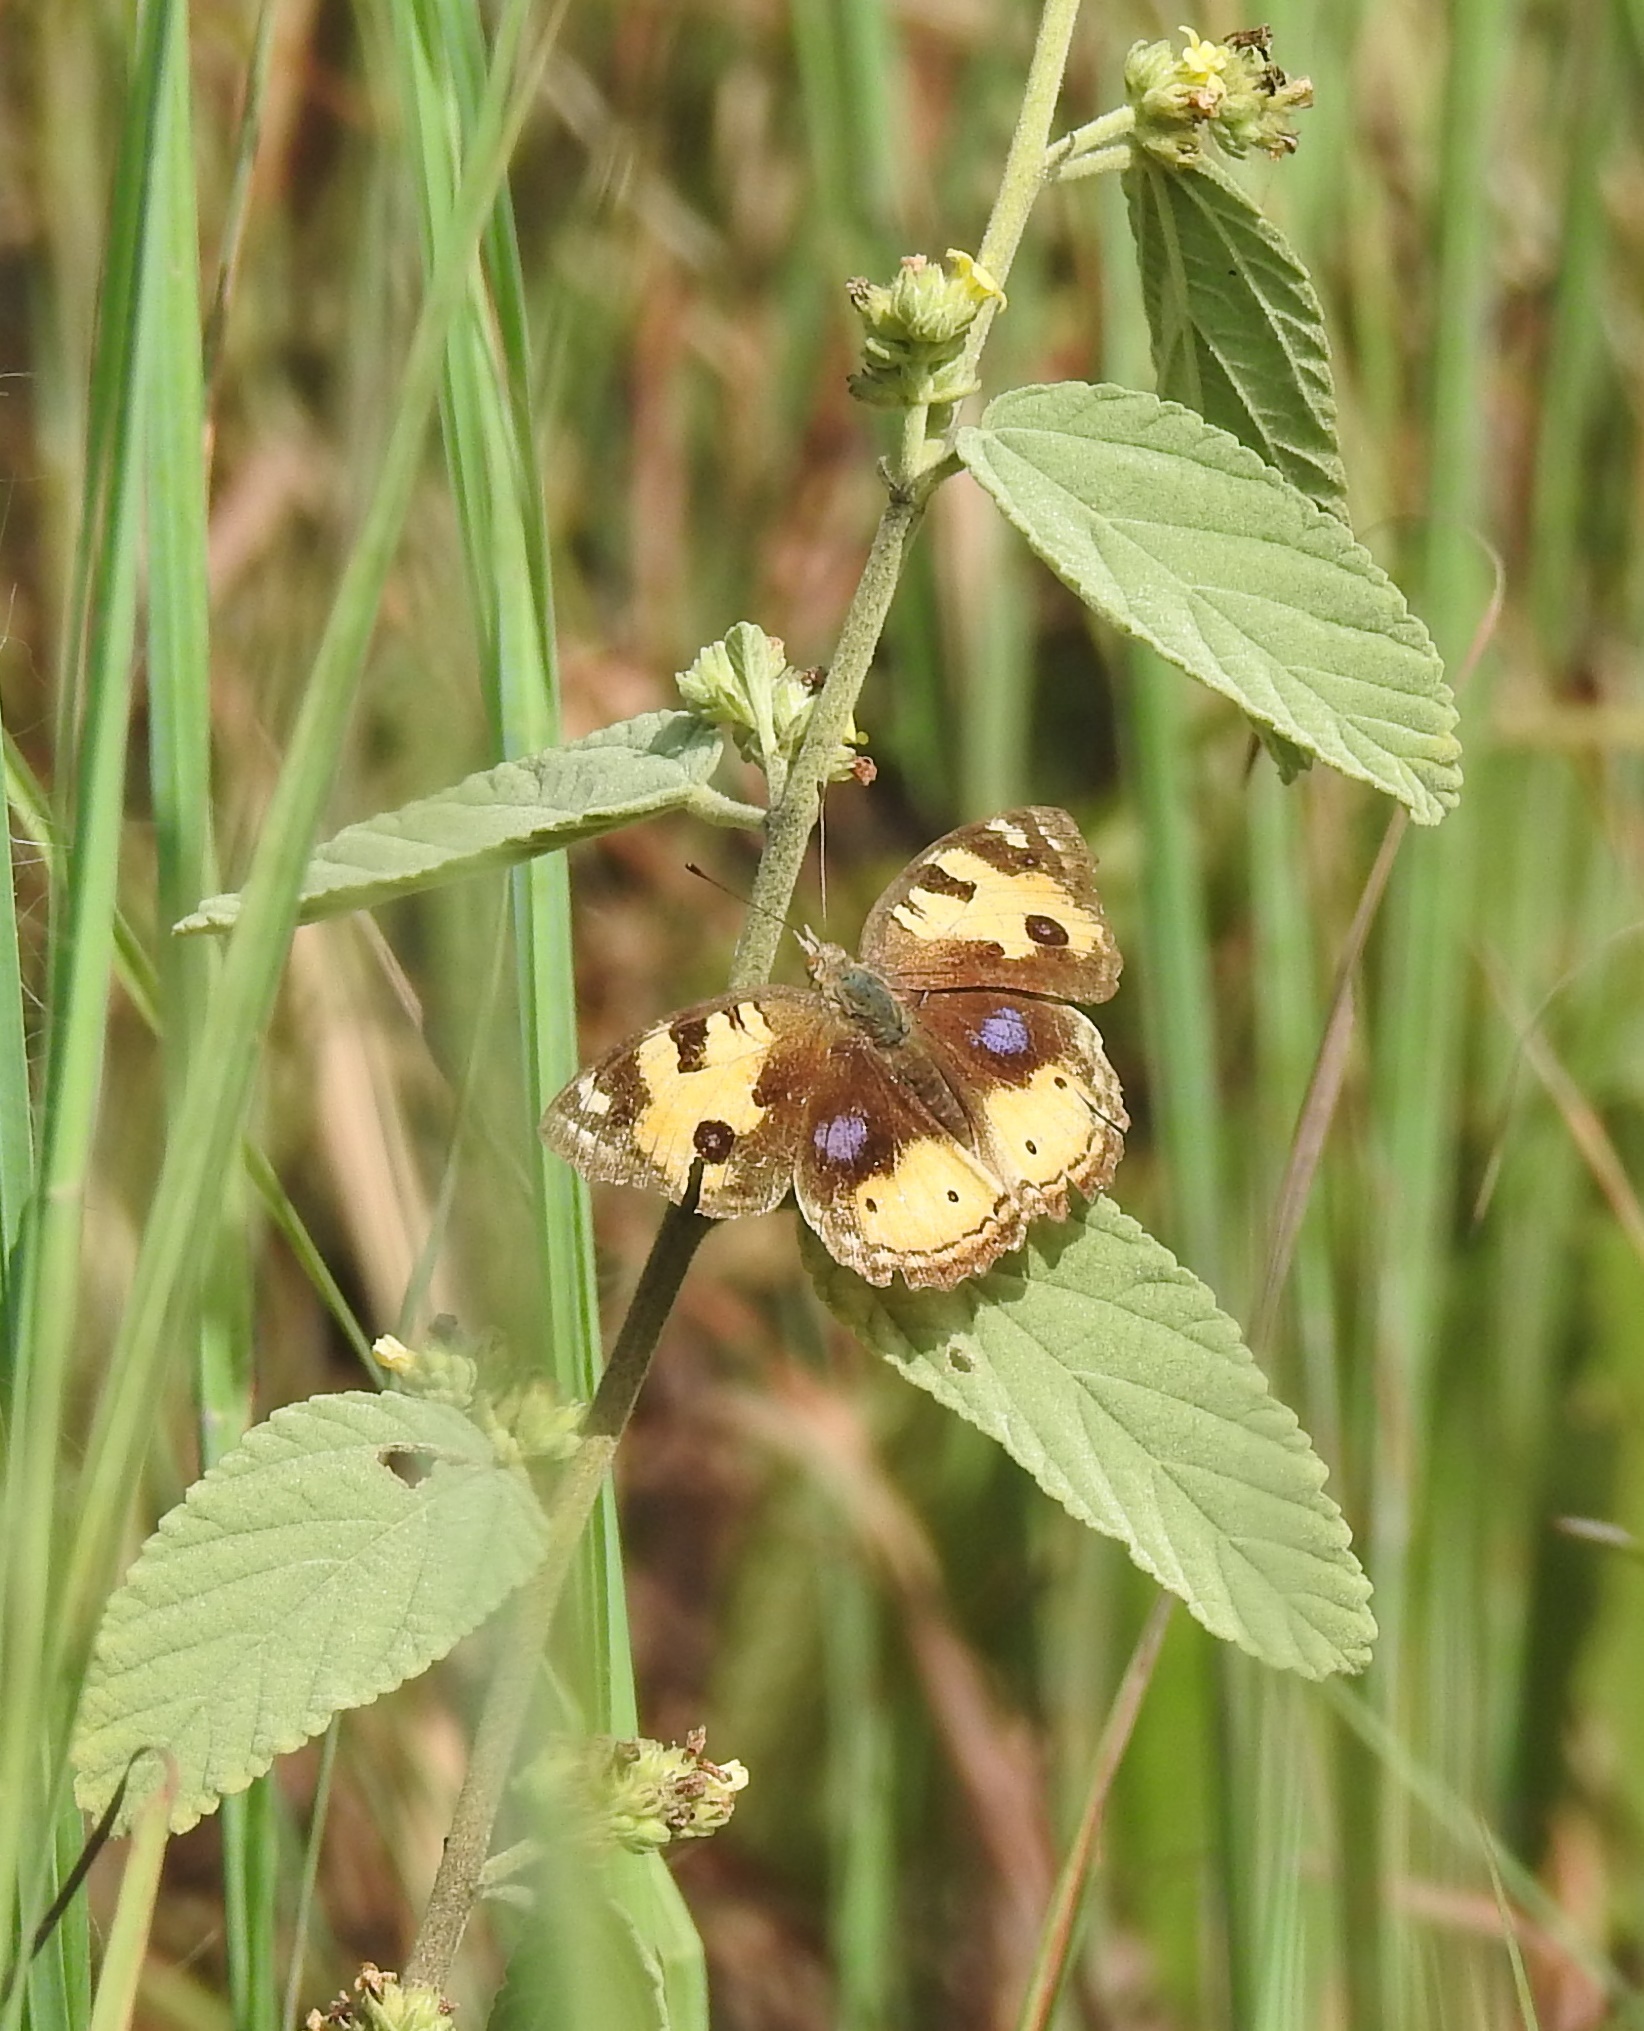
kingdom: Animalia
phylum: Arthropoda
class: Insecta
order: Lepidoptera
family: Nymphalidae
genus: Junonia
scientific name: Junonia hierta
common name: Yellow pansy
